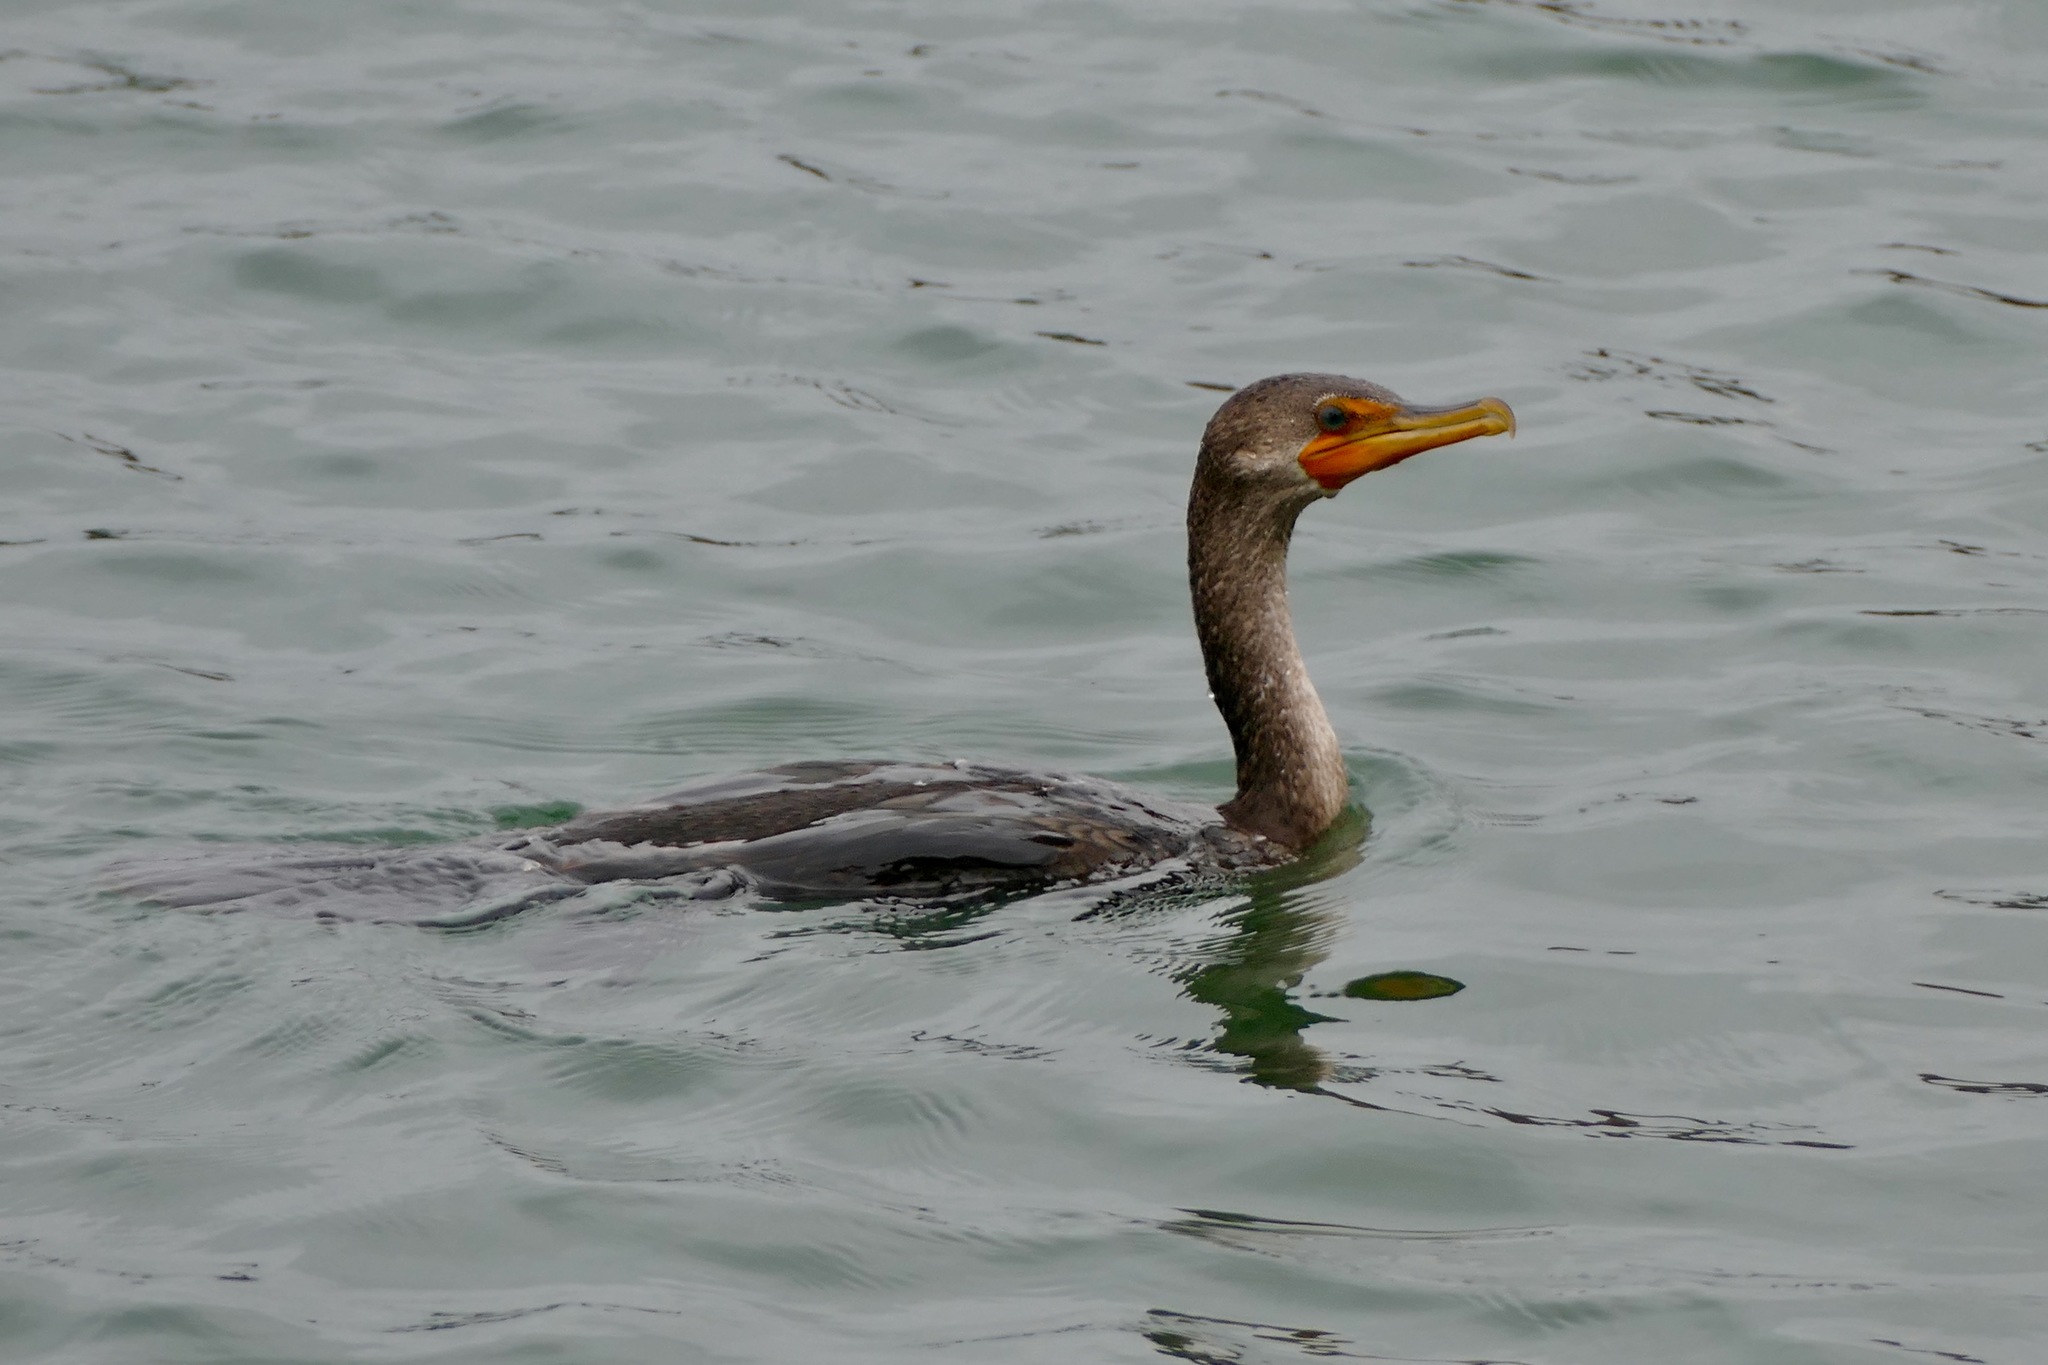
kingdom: Animalia
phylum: Chordata
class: Aves
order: Suliformes
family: Phalacrocoracidae
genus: Phalacrocorax
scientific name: Phalacrocorax auritus
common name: Double-crested cormorant
